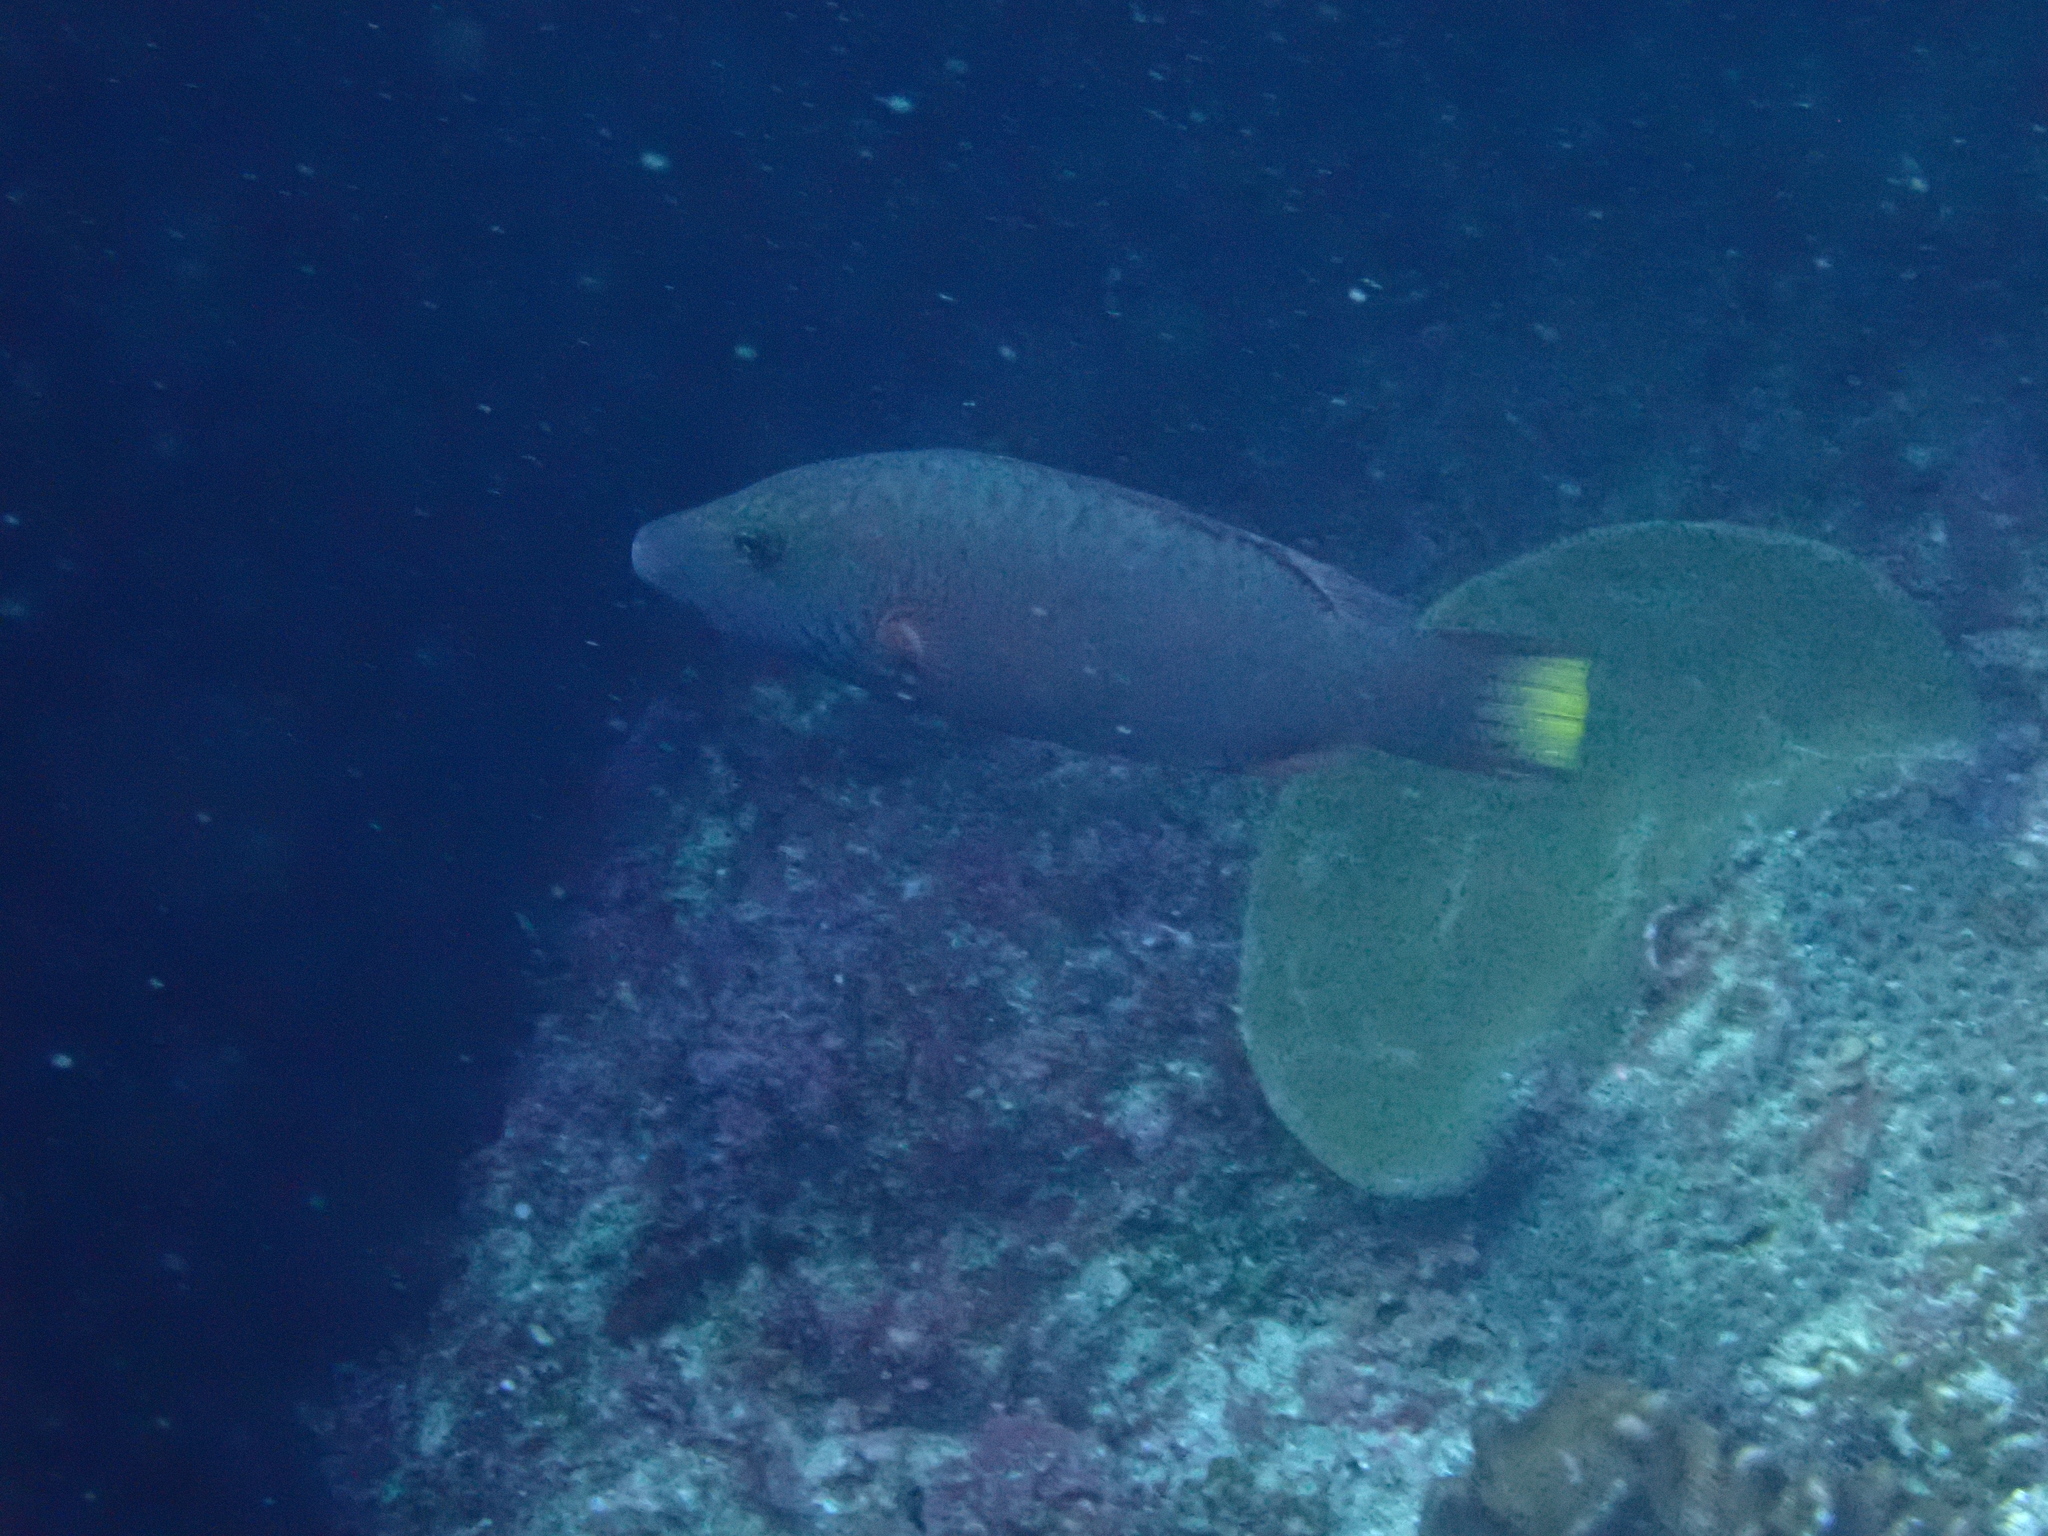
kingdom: Animalia
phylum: Chordata
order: Perciformes
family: Labridae
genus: Oxycheilinus
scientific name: Oxycheilinus digramma
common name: Bandcheek wrasse
